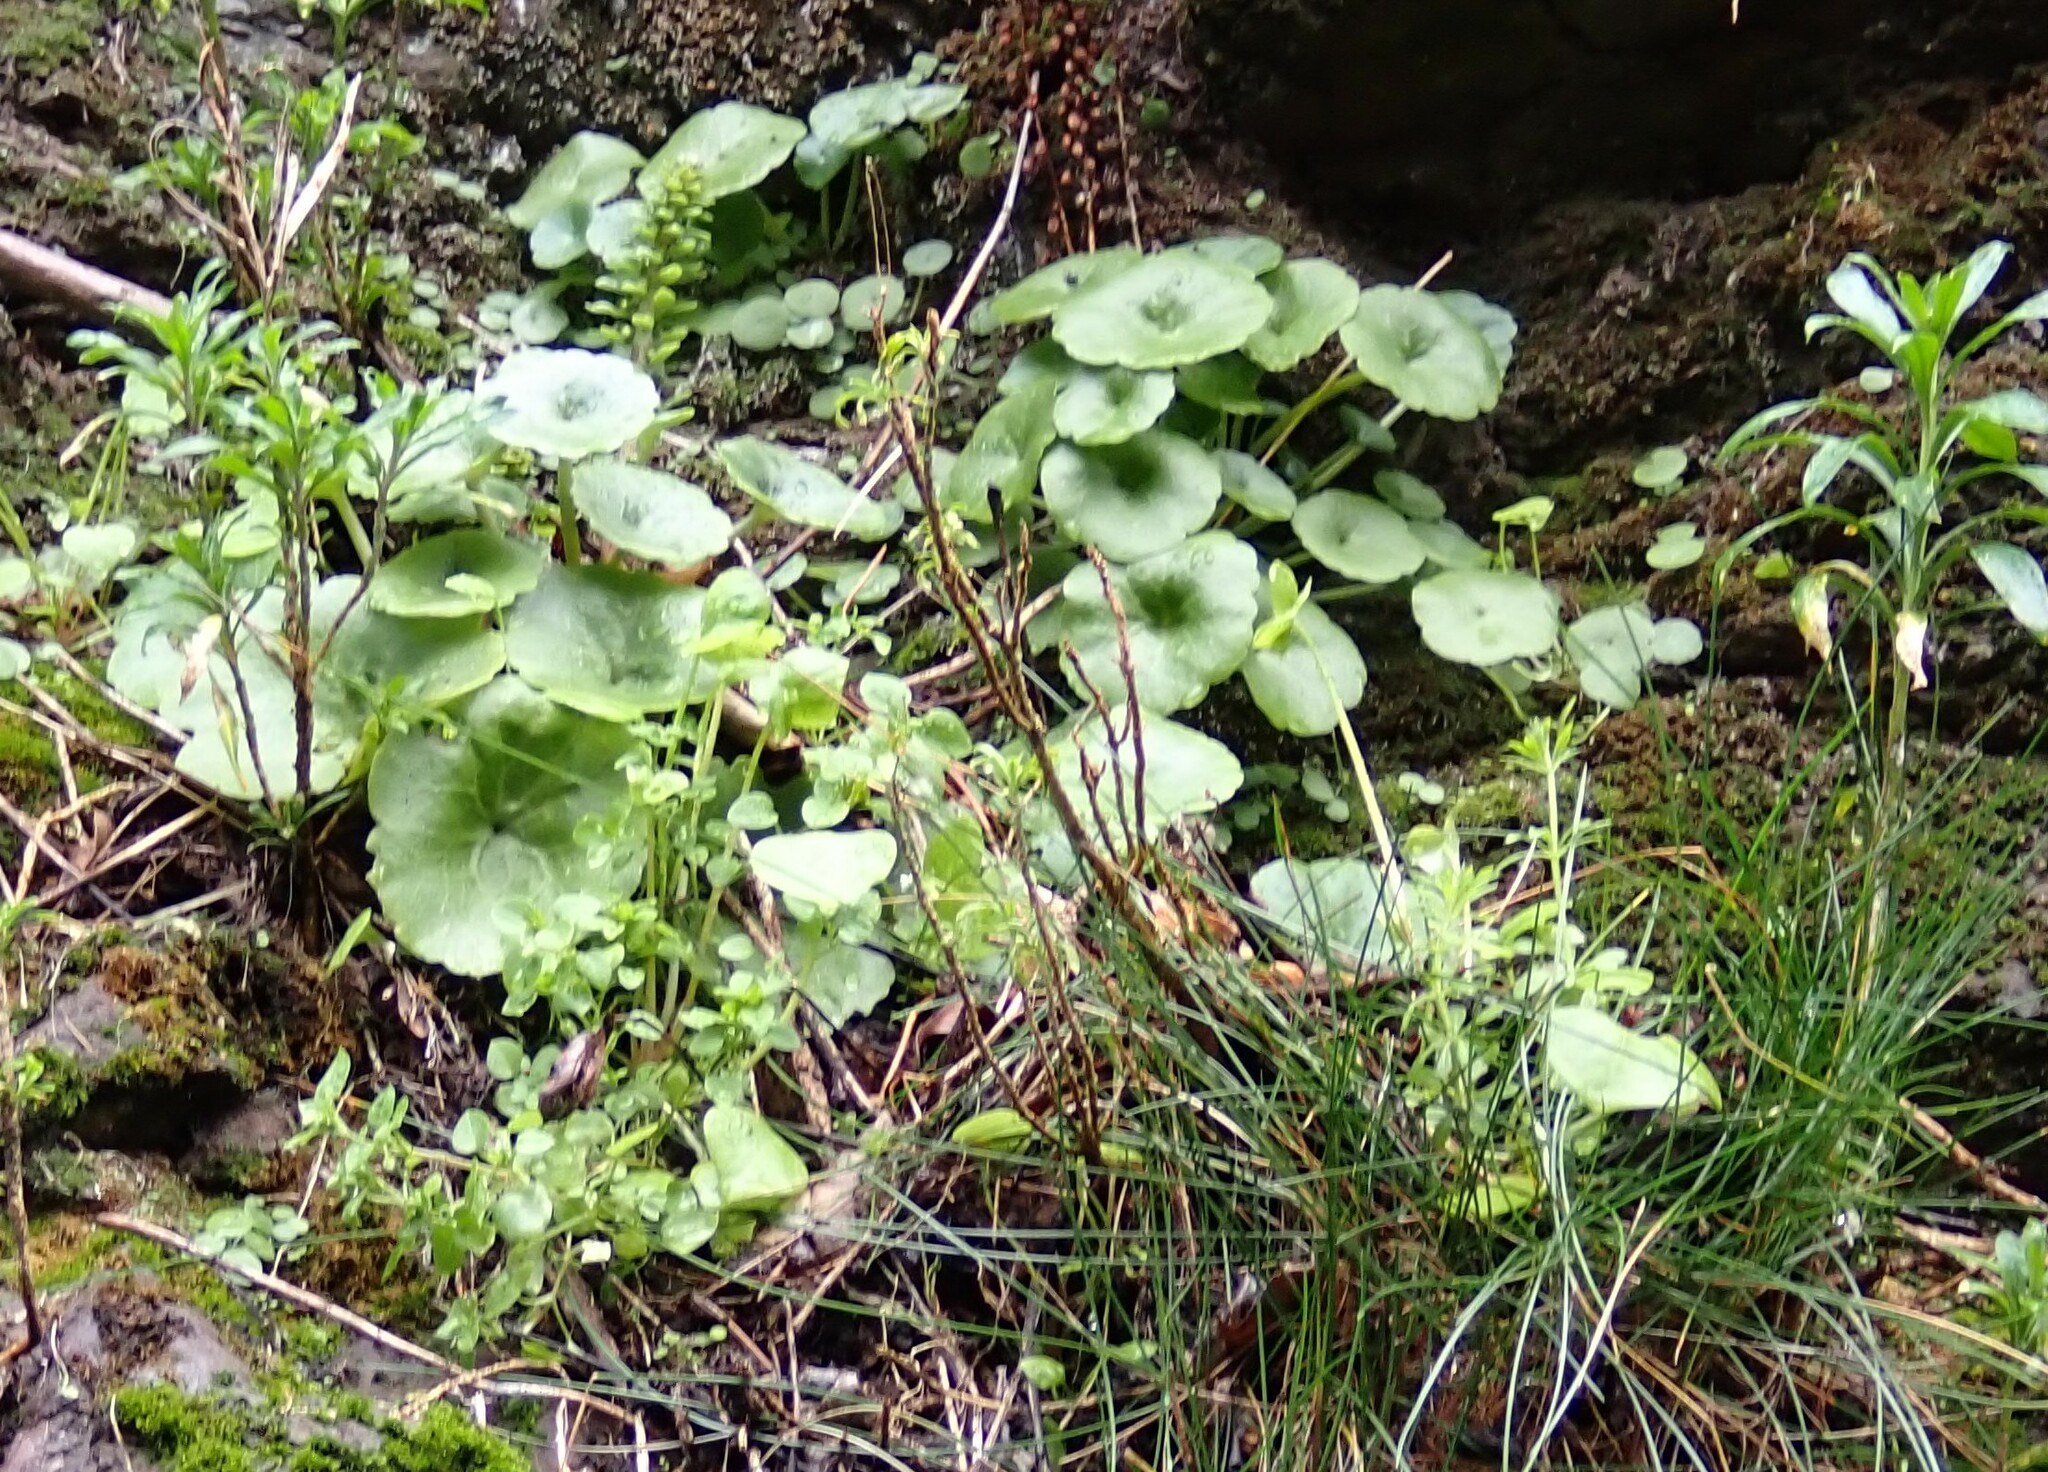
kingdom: Plantae
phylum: Tracheophyta
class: Magnoliopsida
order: Saxifragales
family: Crassulaceae
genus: Umbilicus
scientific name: Umbilicus rupestris
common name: Navelwort
